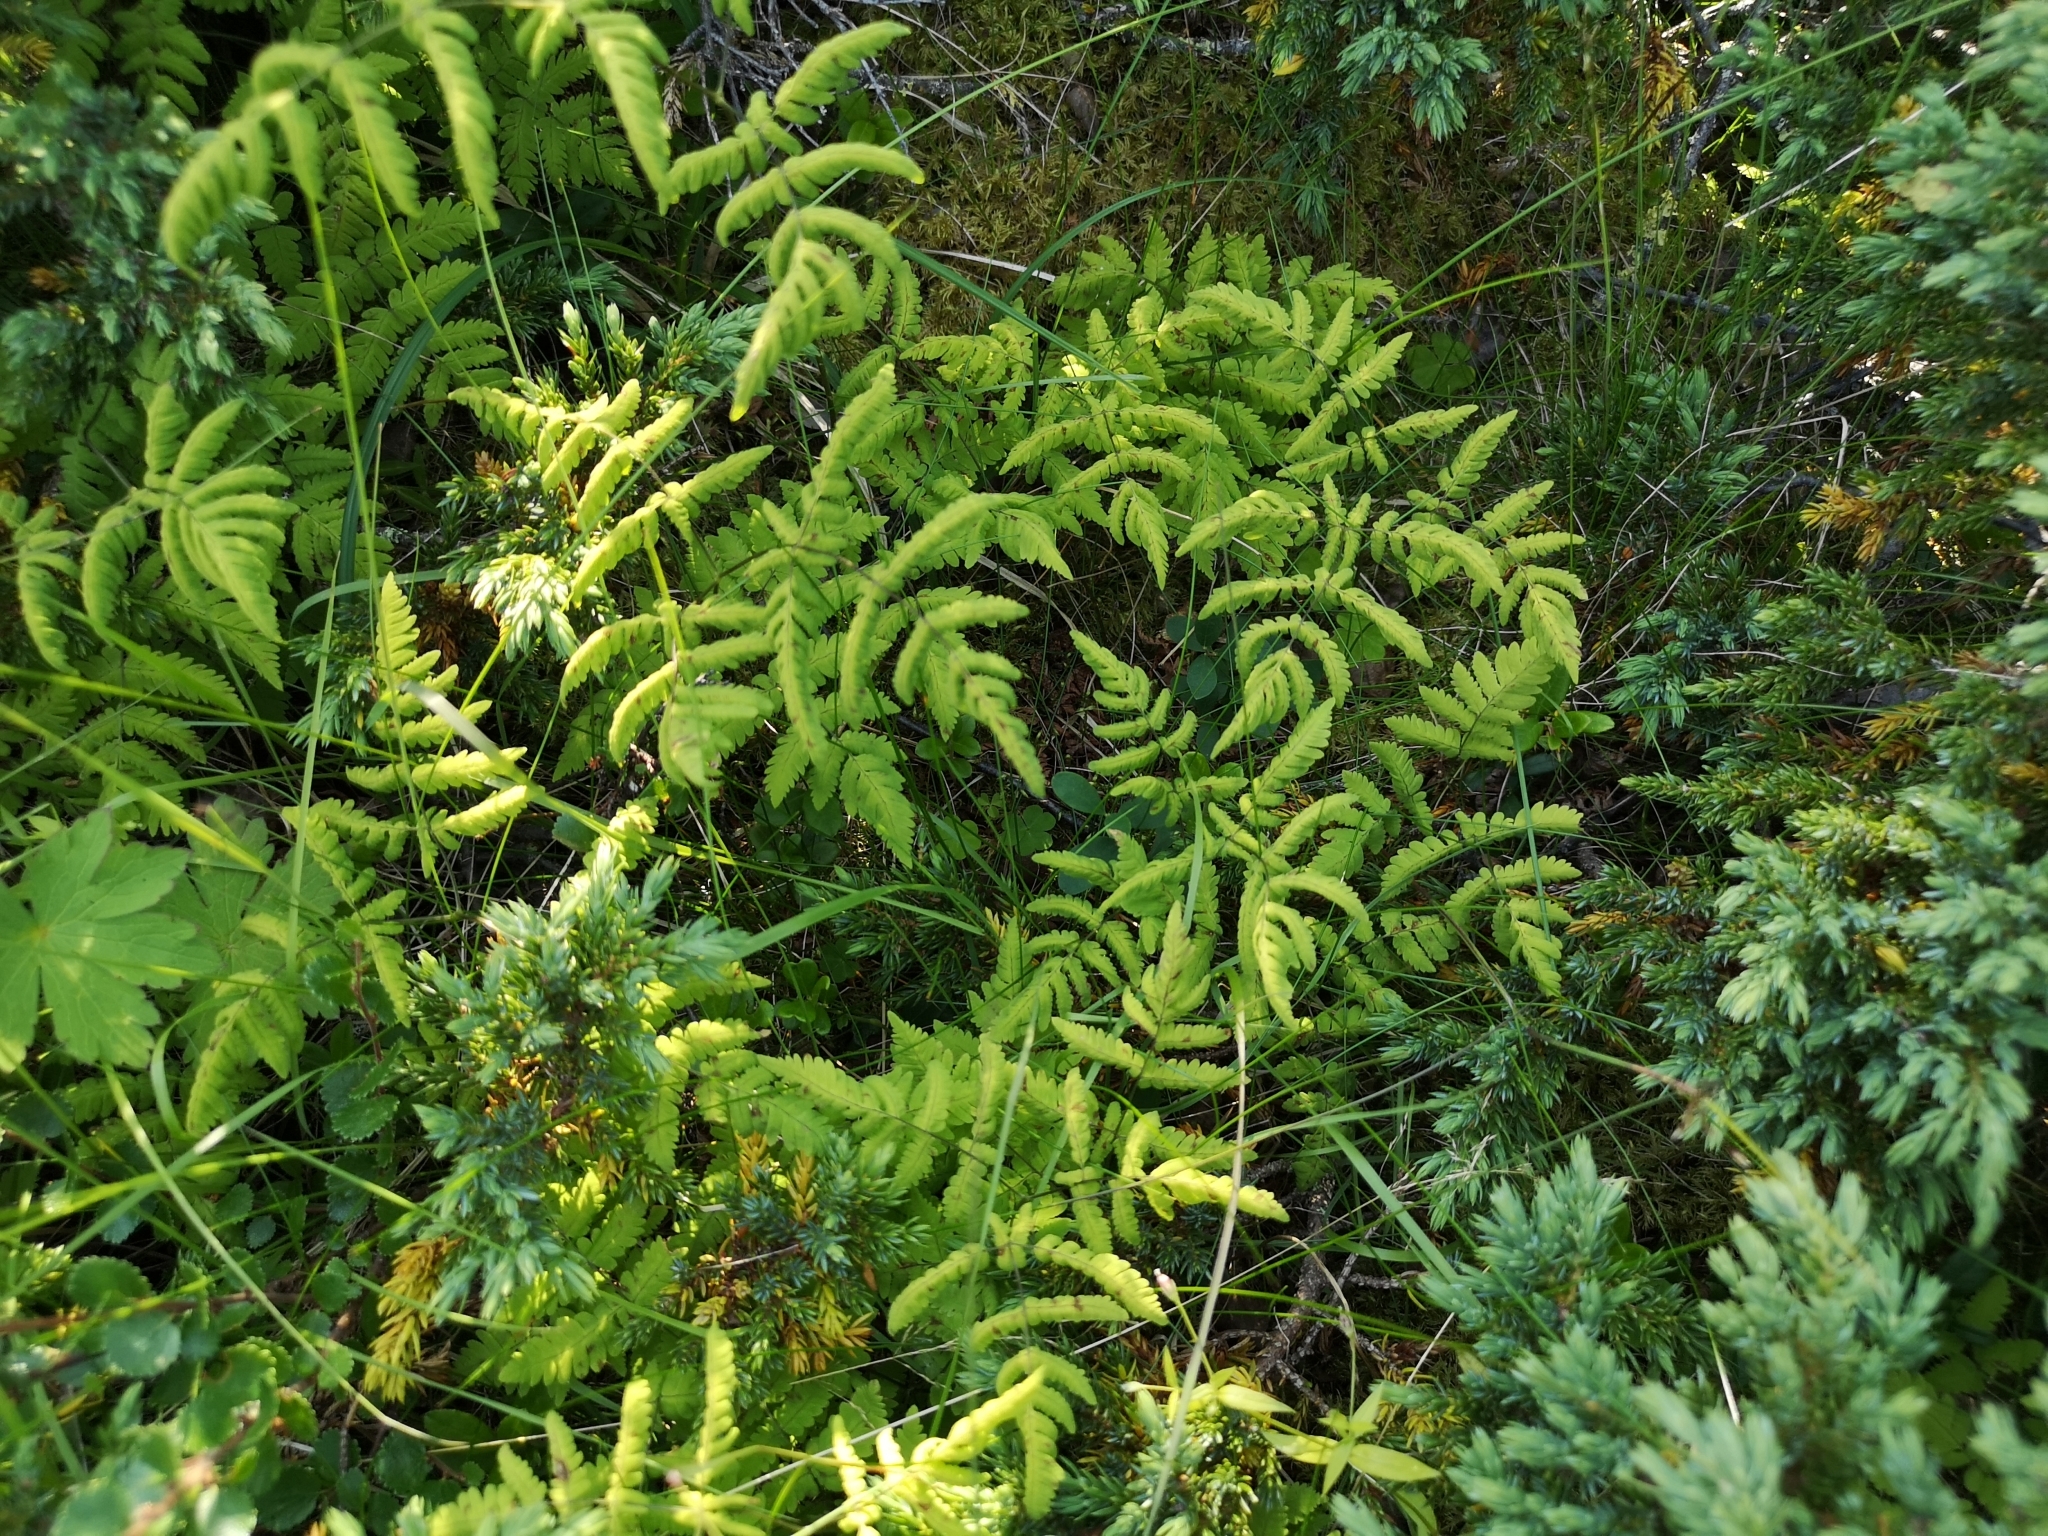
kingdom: Plantae
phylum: Tracheophyta
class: Polypodiopsida
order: Polypodiales
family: Cystopteridaceae
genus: Gymnocarpium
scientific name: Gymnocarpium dryopteris
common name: Oak fern
